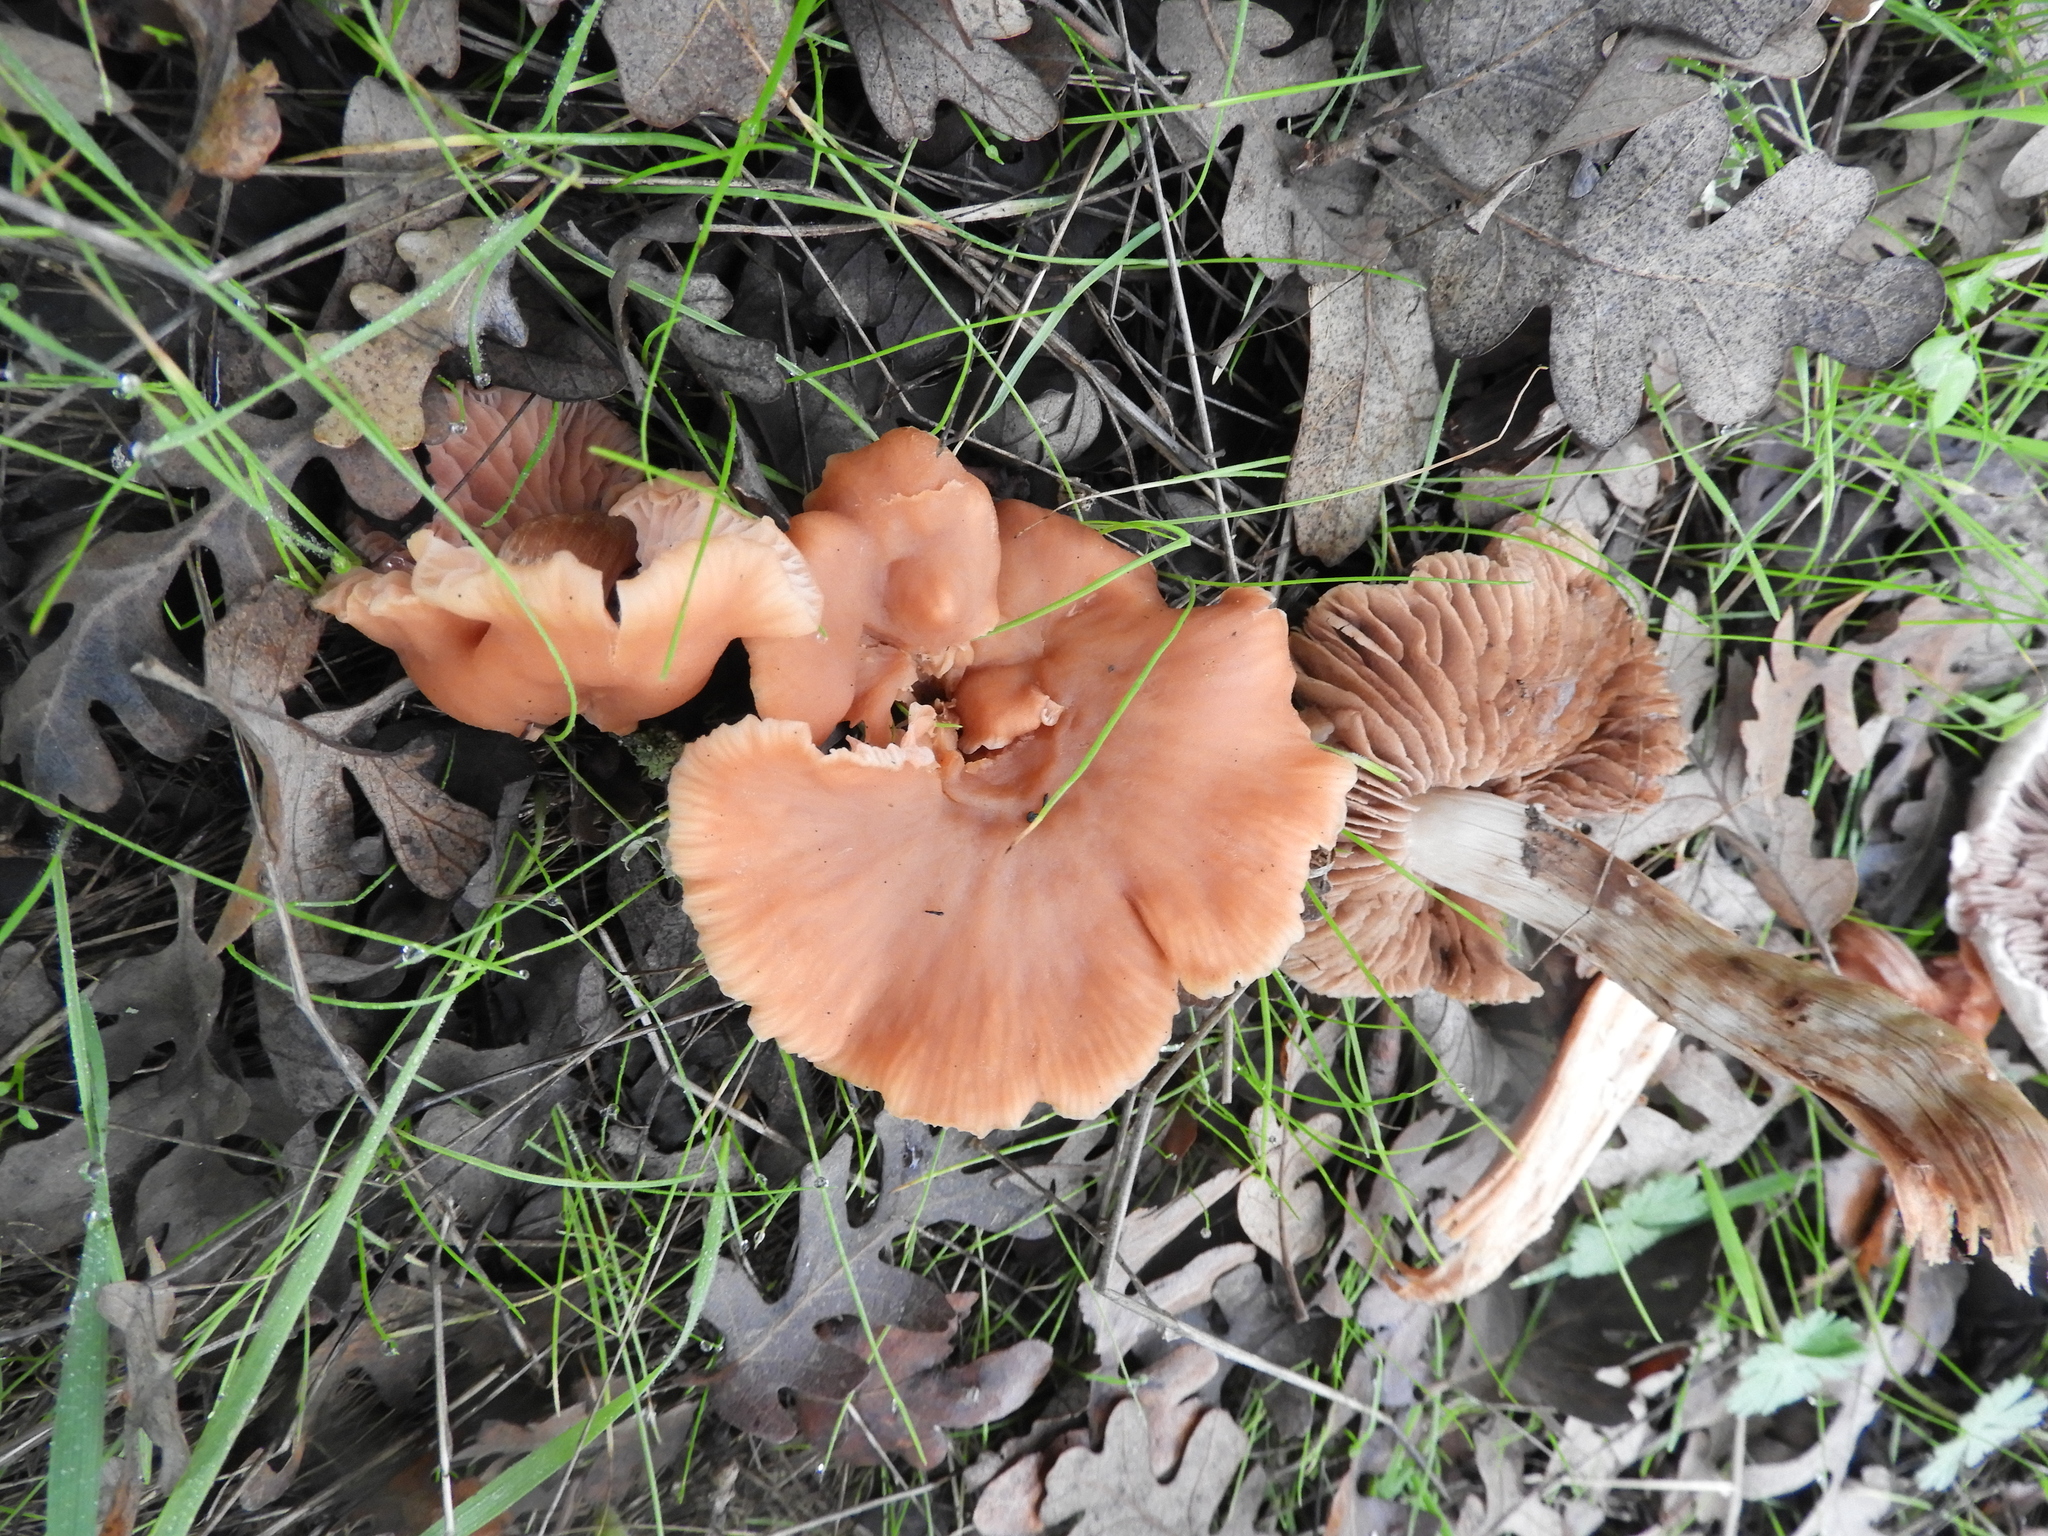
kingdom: Fungi
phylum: Basidiomycota
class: Agaricomycetes
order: Agaricales
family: Hydnangiaceae
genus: Laccaria
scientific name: Laccaria laccata
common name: Deceiver
